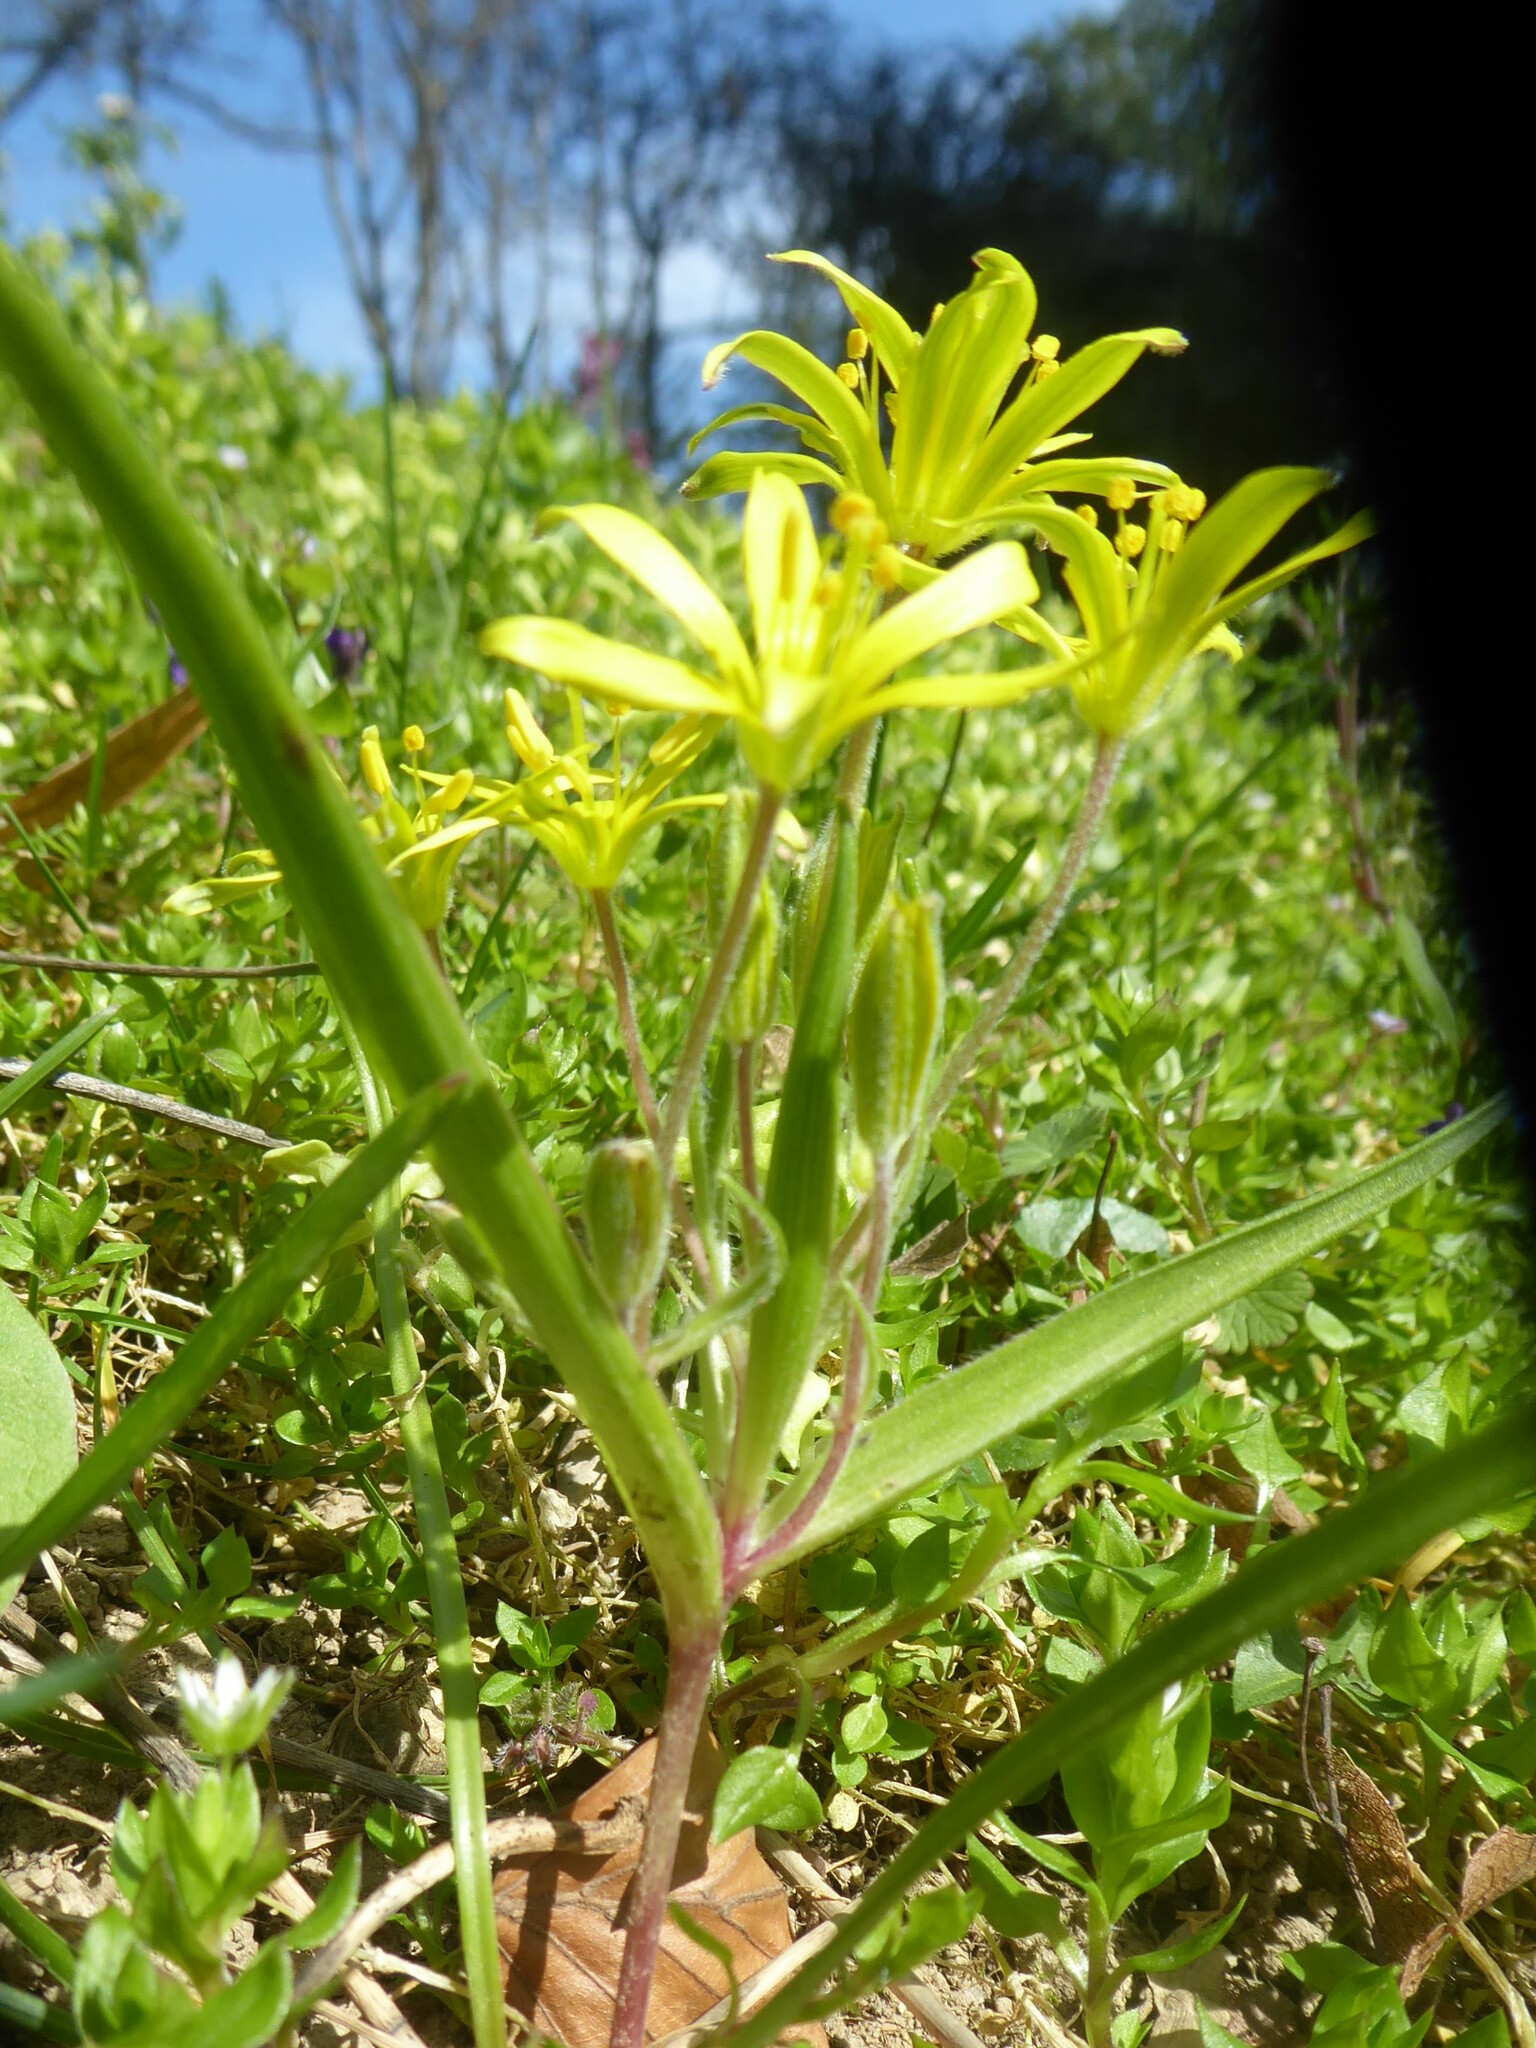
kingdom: Plantae
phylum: Tracheophyta
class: Liliopsida
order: Liliales
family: Liliaceae
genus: Gagea
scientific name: Gagea villosa
